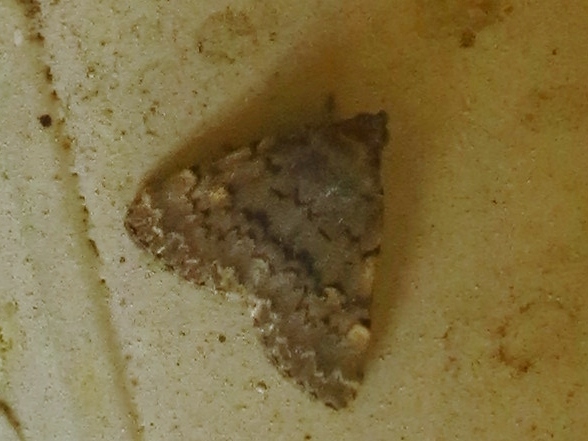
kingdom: Animalia
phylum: Arthropoda
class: Insecta
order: Lepidoptera
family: Erebidae
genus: Idia
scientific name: Idia aemula
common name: Common idia moth
